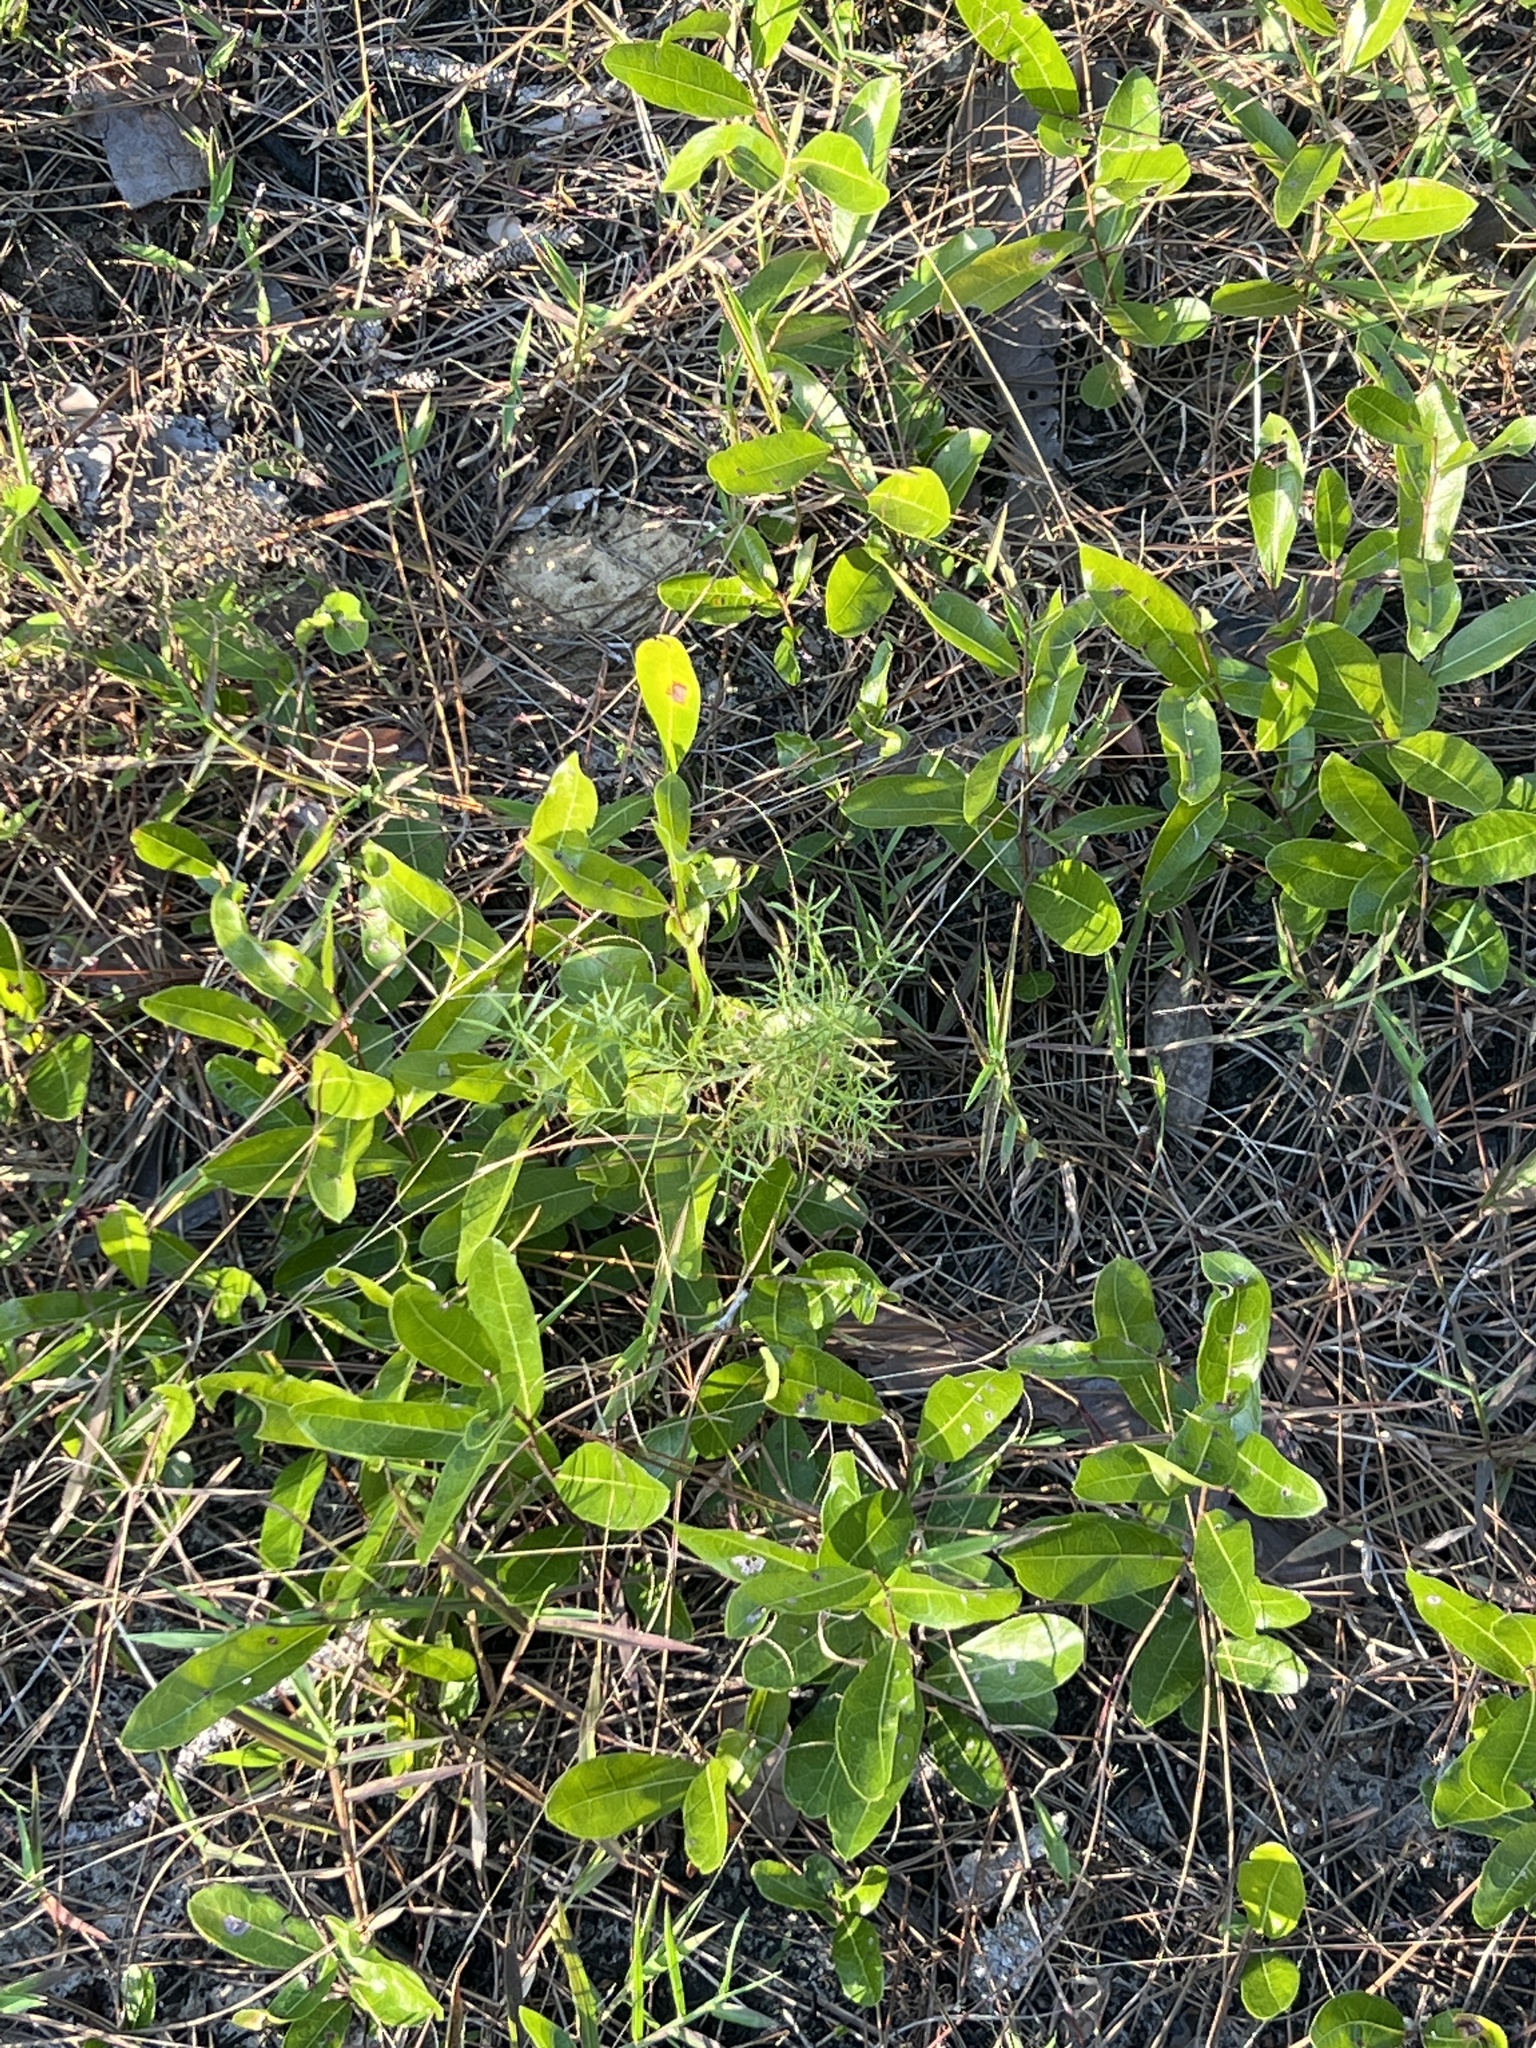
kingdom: Plantae
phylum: Tracheophyta
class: Magnoliopsida
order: Malpighiales
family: Chrysobalanaceae
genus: Geobalanus
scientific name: Geobalanus oblongifolius
